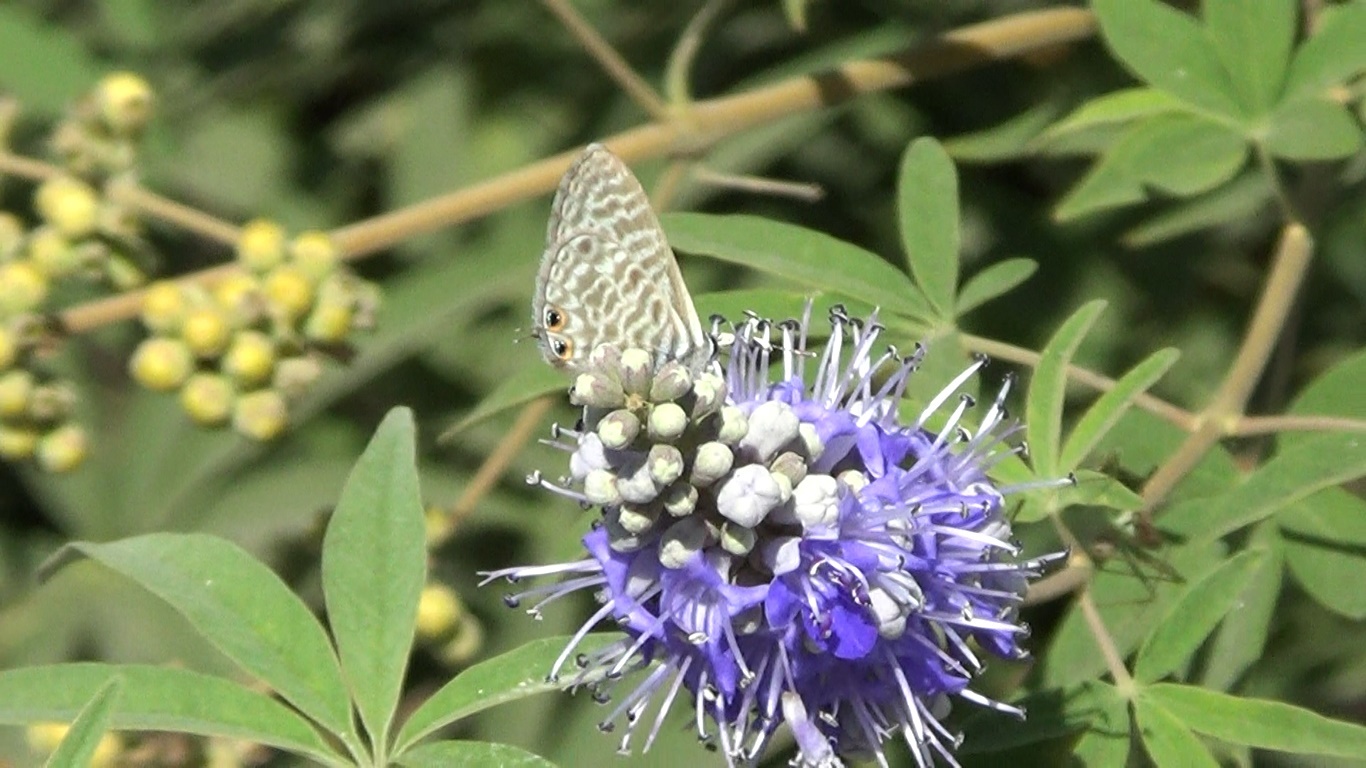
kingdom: Animalia
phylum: Arthropoda
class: Insecta
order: Lepidoptera
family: Lycaenidae
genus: Leptotes
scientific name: Leptotes pirithous
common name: Lang's short-tailed blue
